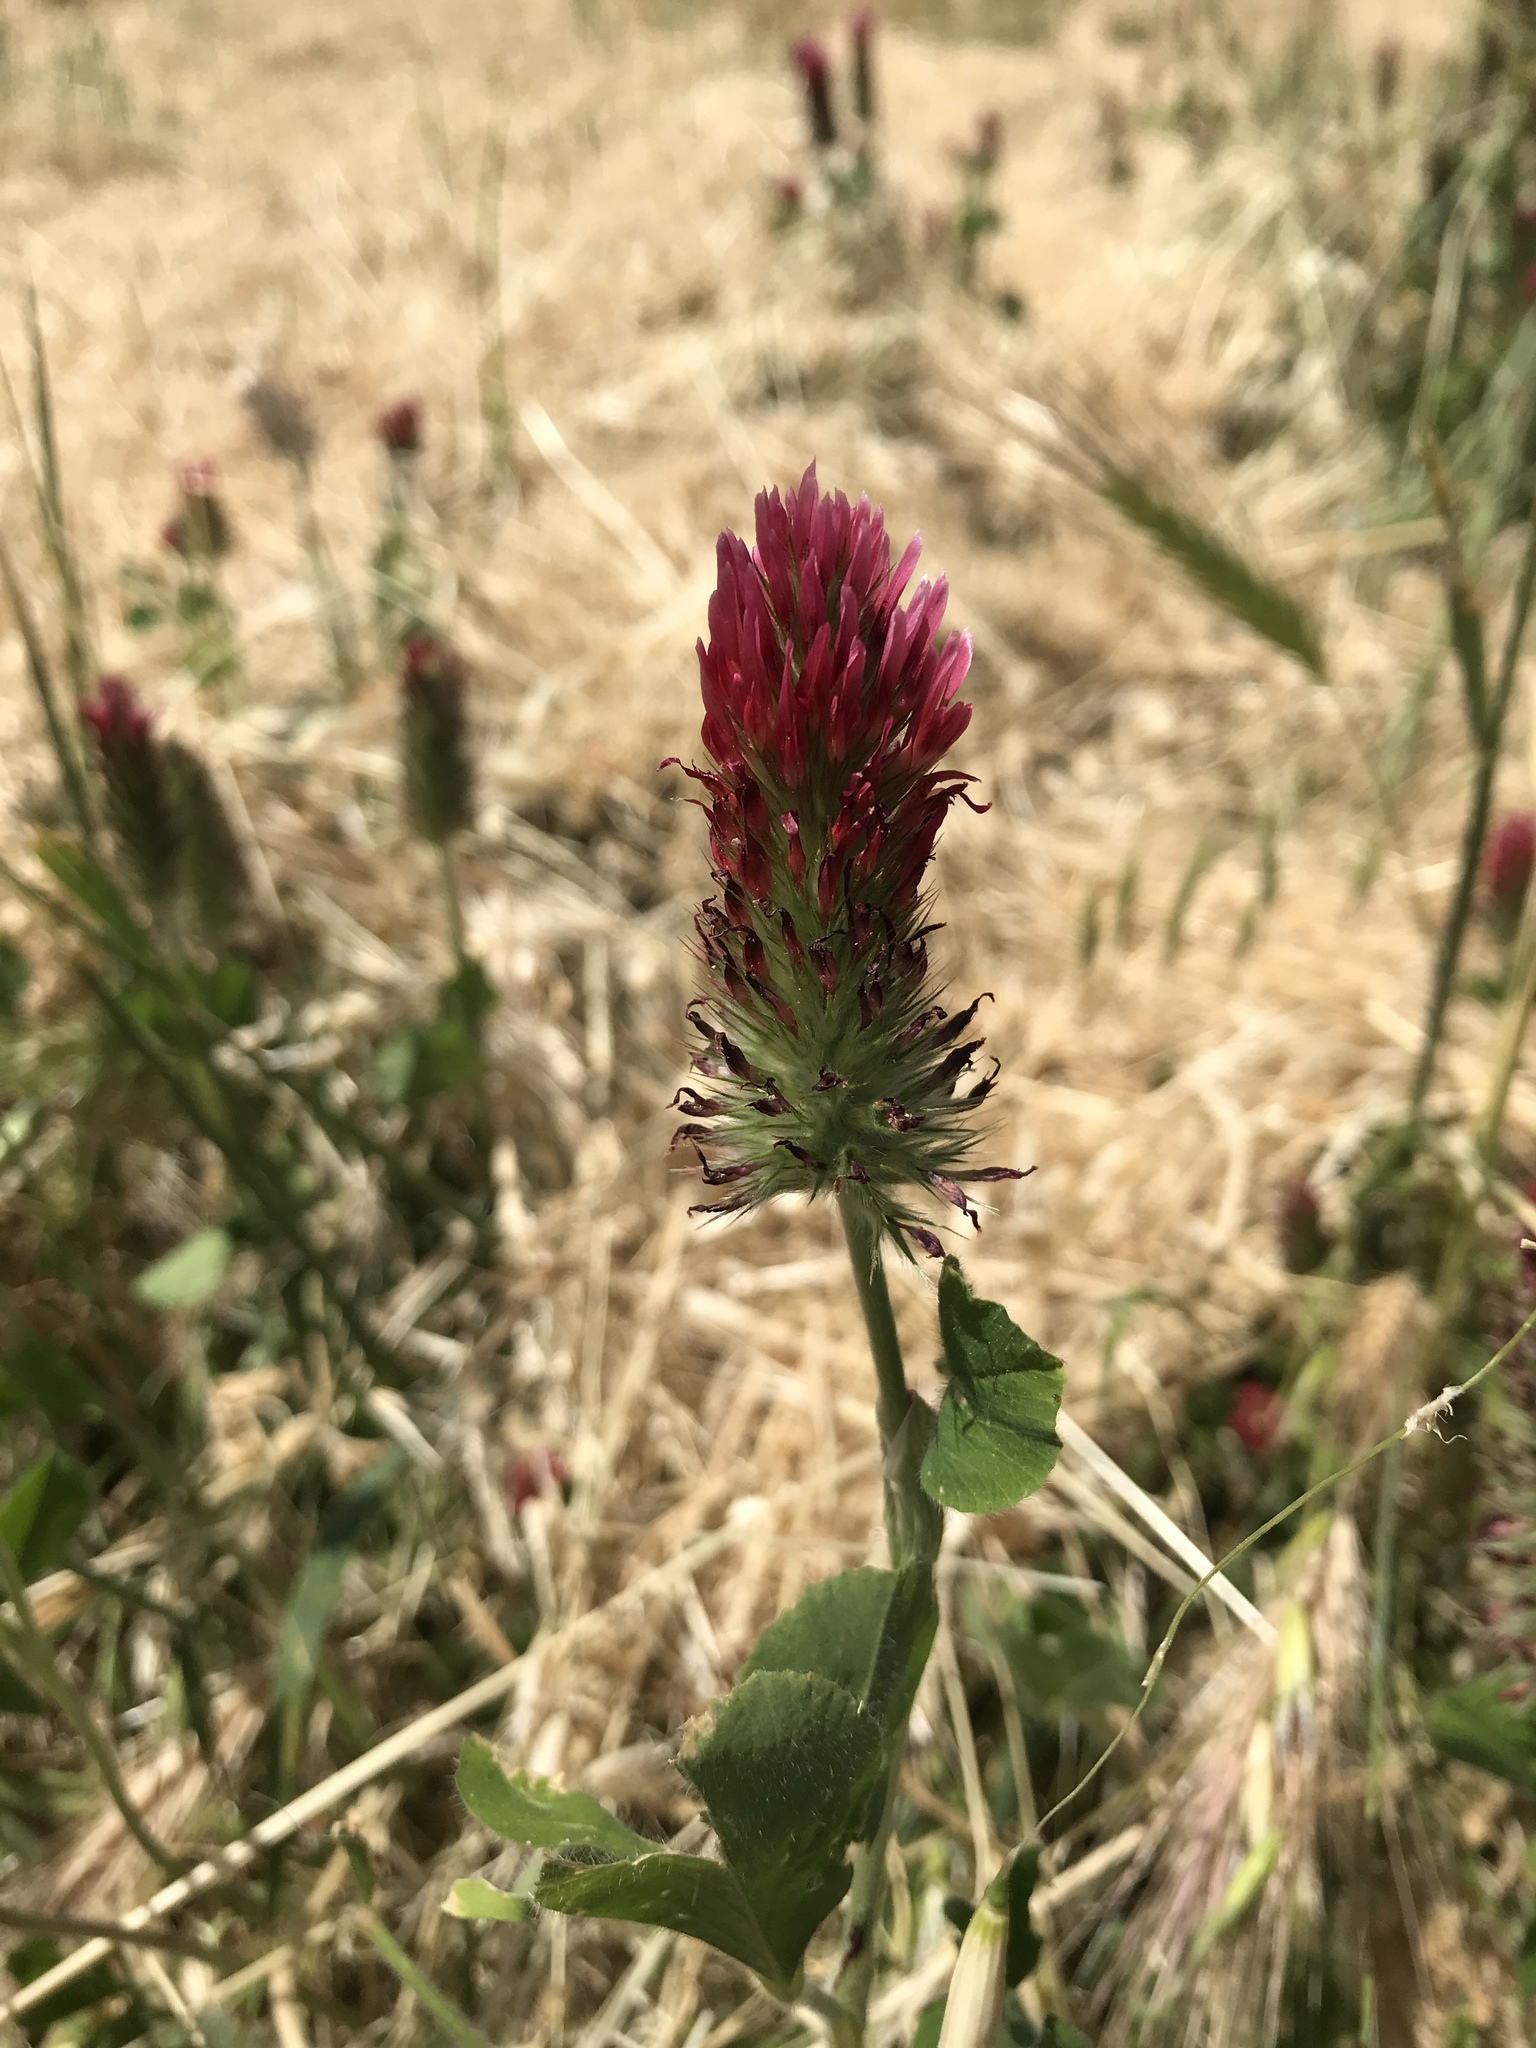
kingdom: Plantae
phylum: Tracheophyta
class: Magnoliopsida
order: Fabales
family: Fabaceae
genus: Trifolium
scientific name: Trifolium incarnatum
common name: Crimson clover
